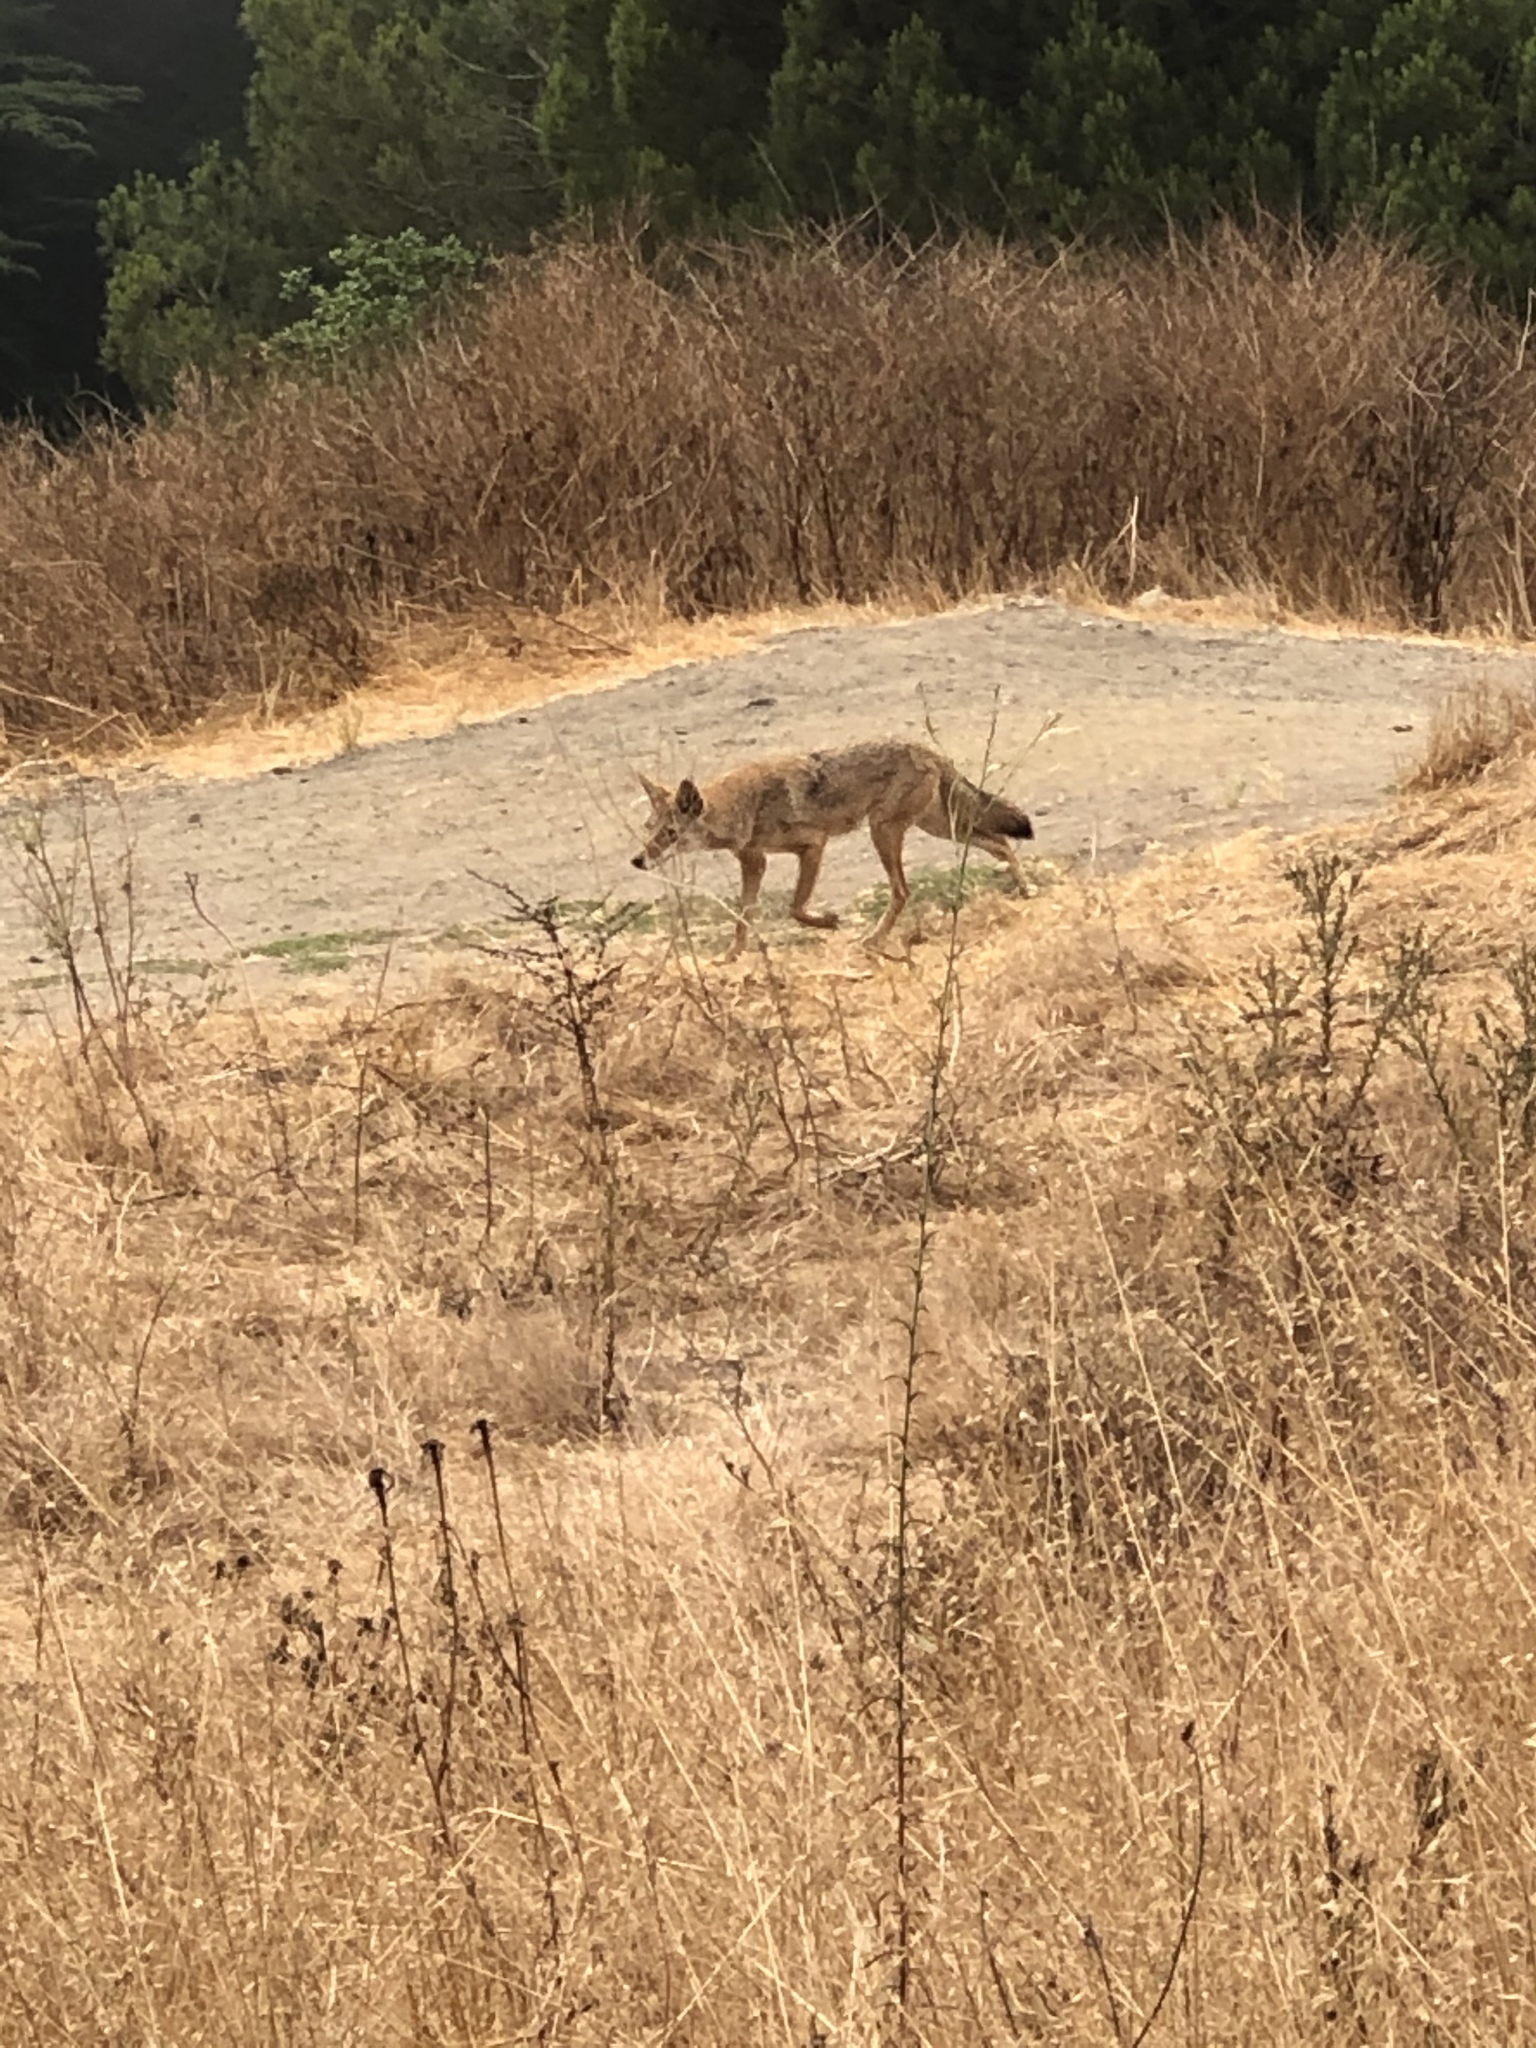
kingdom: Animalia
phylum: Chordata
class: Mammalia
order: Carnivora
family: Canidae
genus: Canis
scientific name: Canis latrans
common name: Coyote
